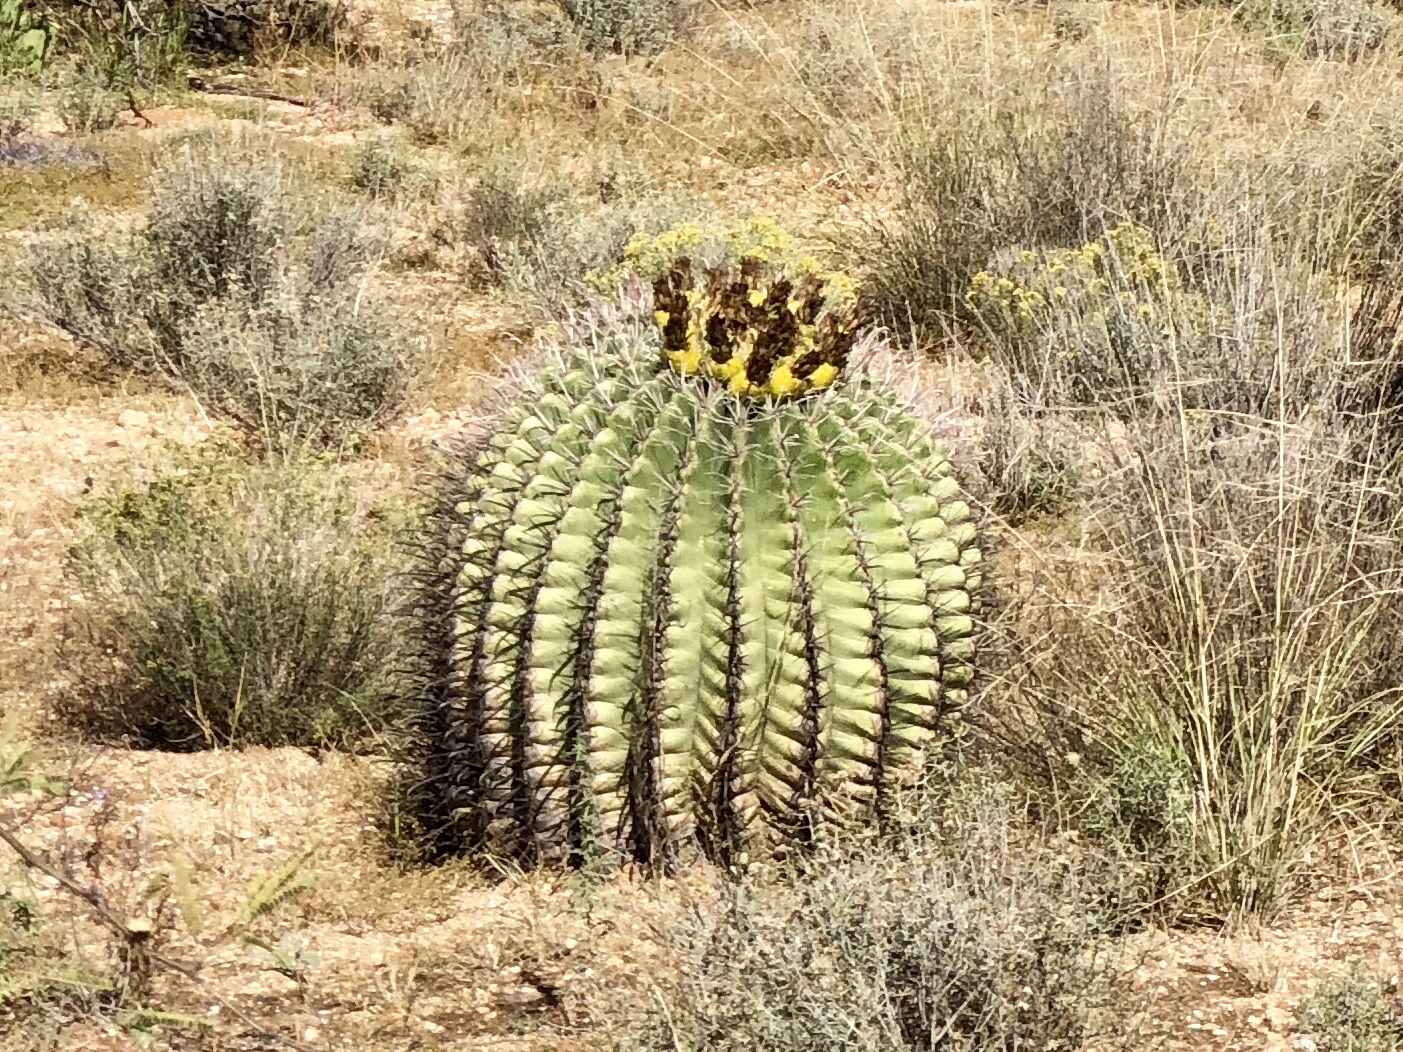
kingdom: Plantae
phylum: Tracheophyta
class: Magnoliopsida
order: Caryophyllales
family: Cactaceae
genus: Ferocactus
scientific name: Ferocactus wislizeni
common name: Candy barrel cactus
